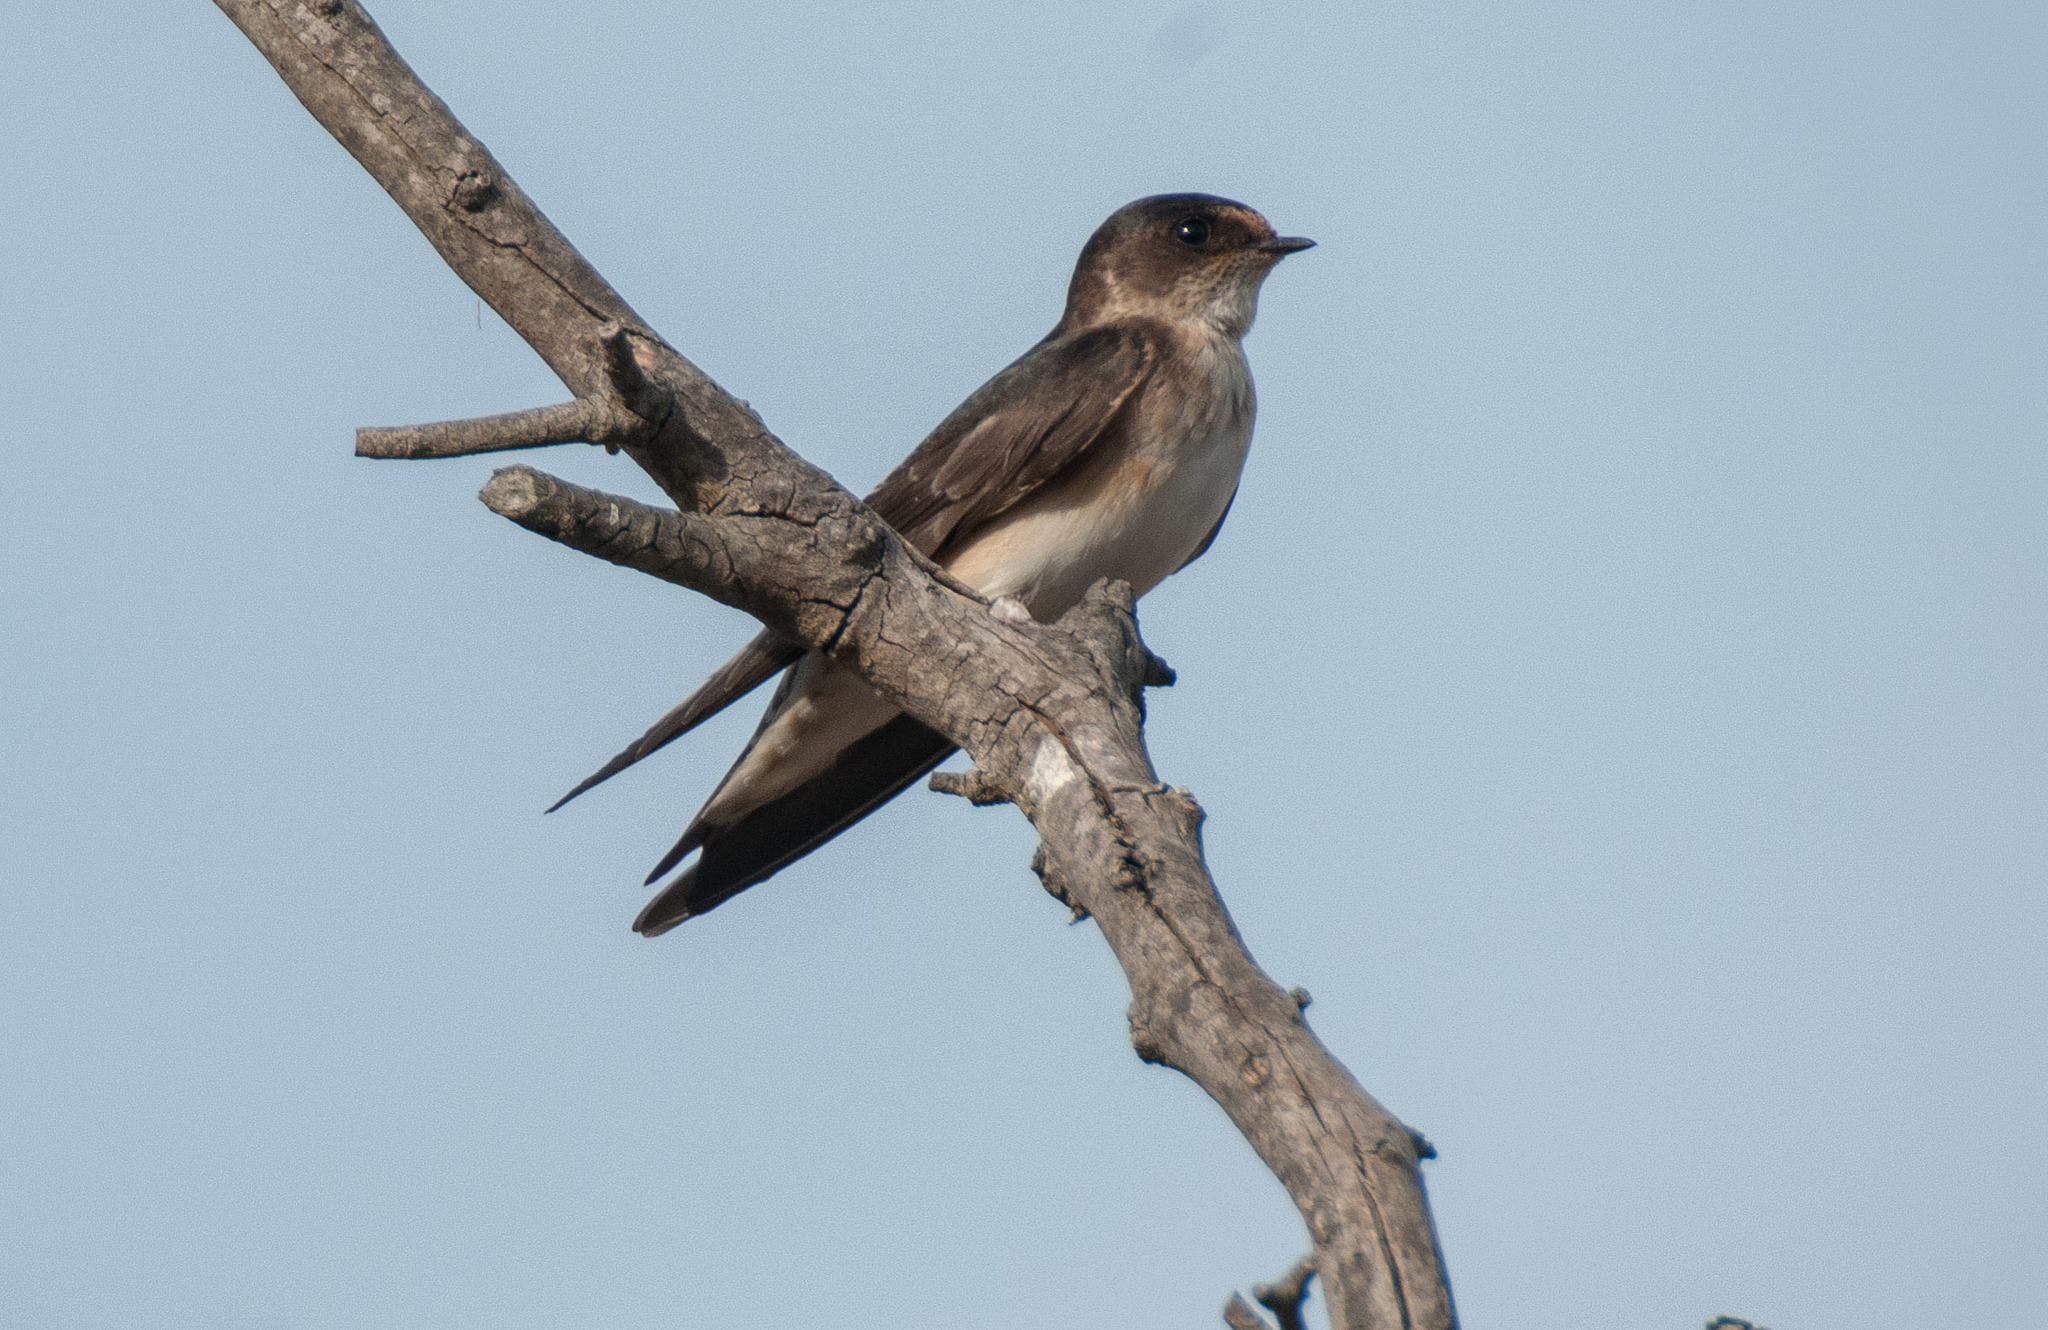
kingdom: Animalia
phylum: Chordata
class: Aves
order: Passeriformes
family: Hirundinidae
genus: Petrochelidon
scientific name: Petrochelidon nigricans
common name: Tree martin
